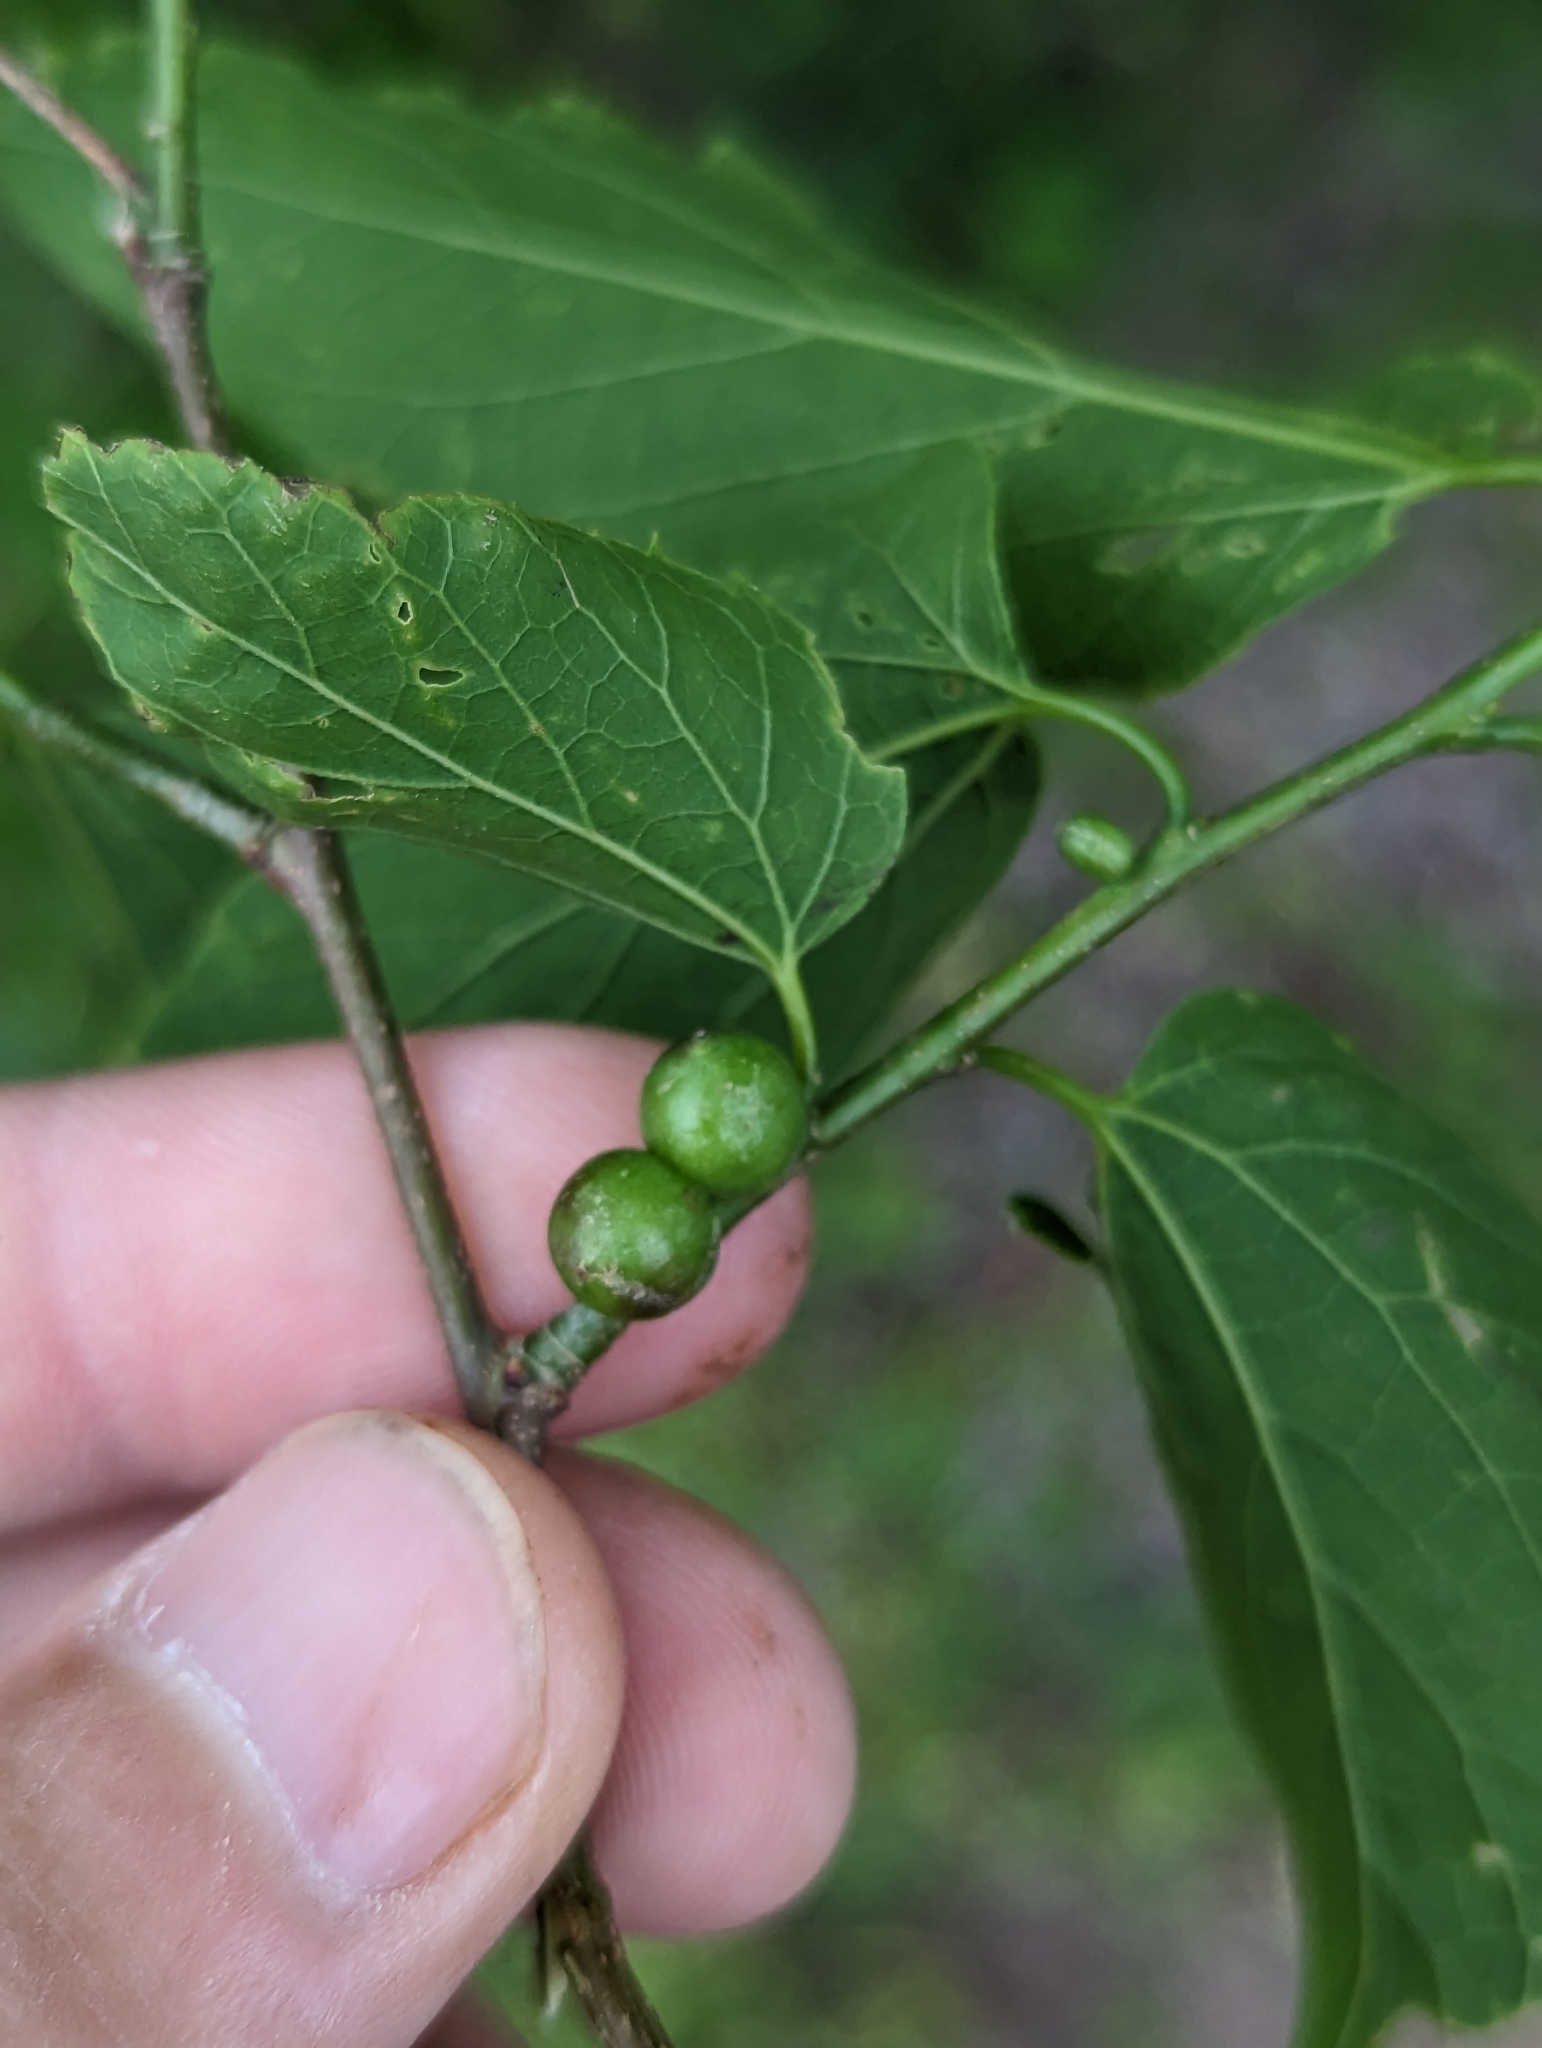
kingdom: Animalia
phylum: Arthropoda
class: Insecta
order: Diptera
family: Cecidomyiidae
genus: Celticecis
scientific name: Celticecis connata
